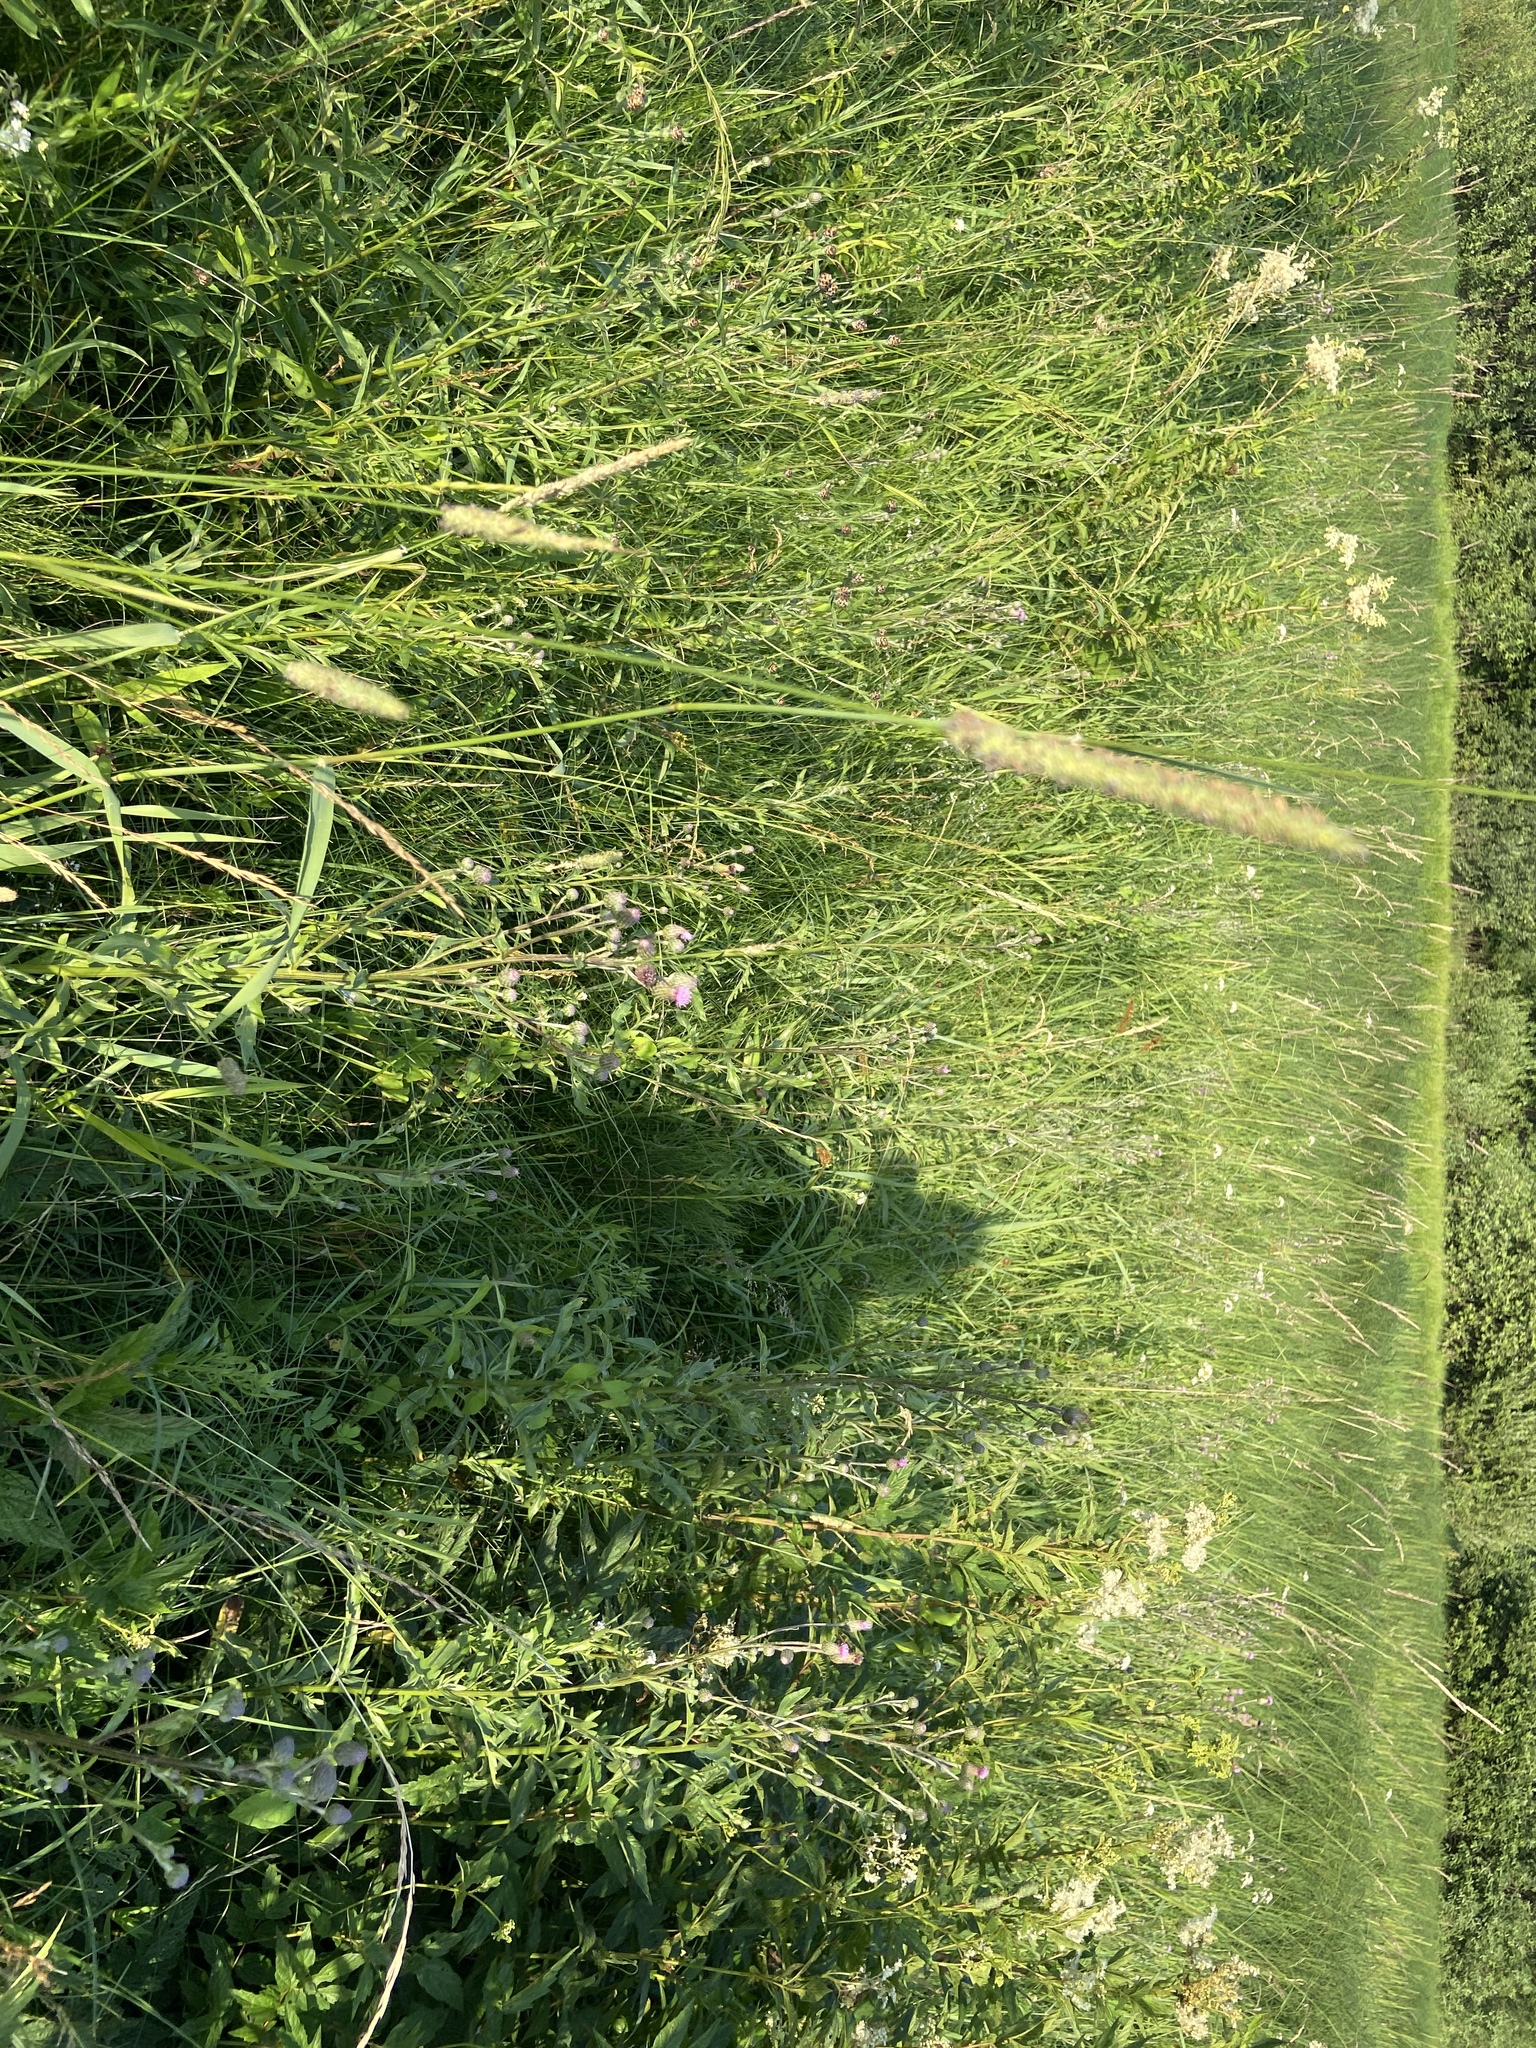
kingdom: Plantae
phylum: Tracheophyta
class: Liliopsida
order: Poales
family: Poaceae
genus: Phleum
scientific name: Phleum pratense
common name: Timothy grass
